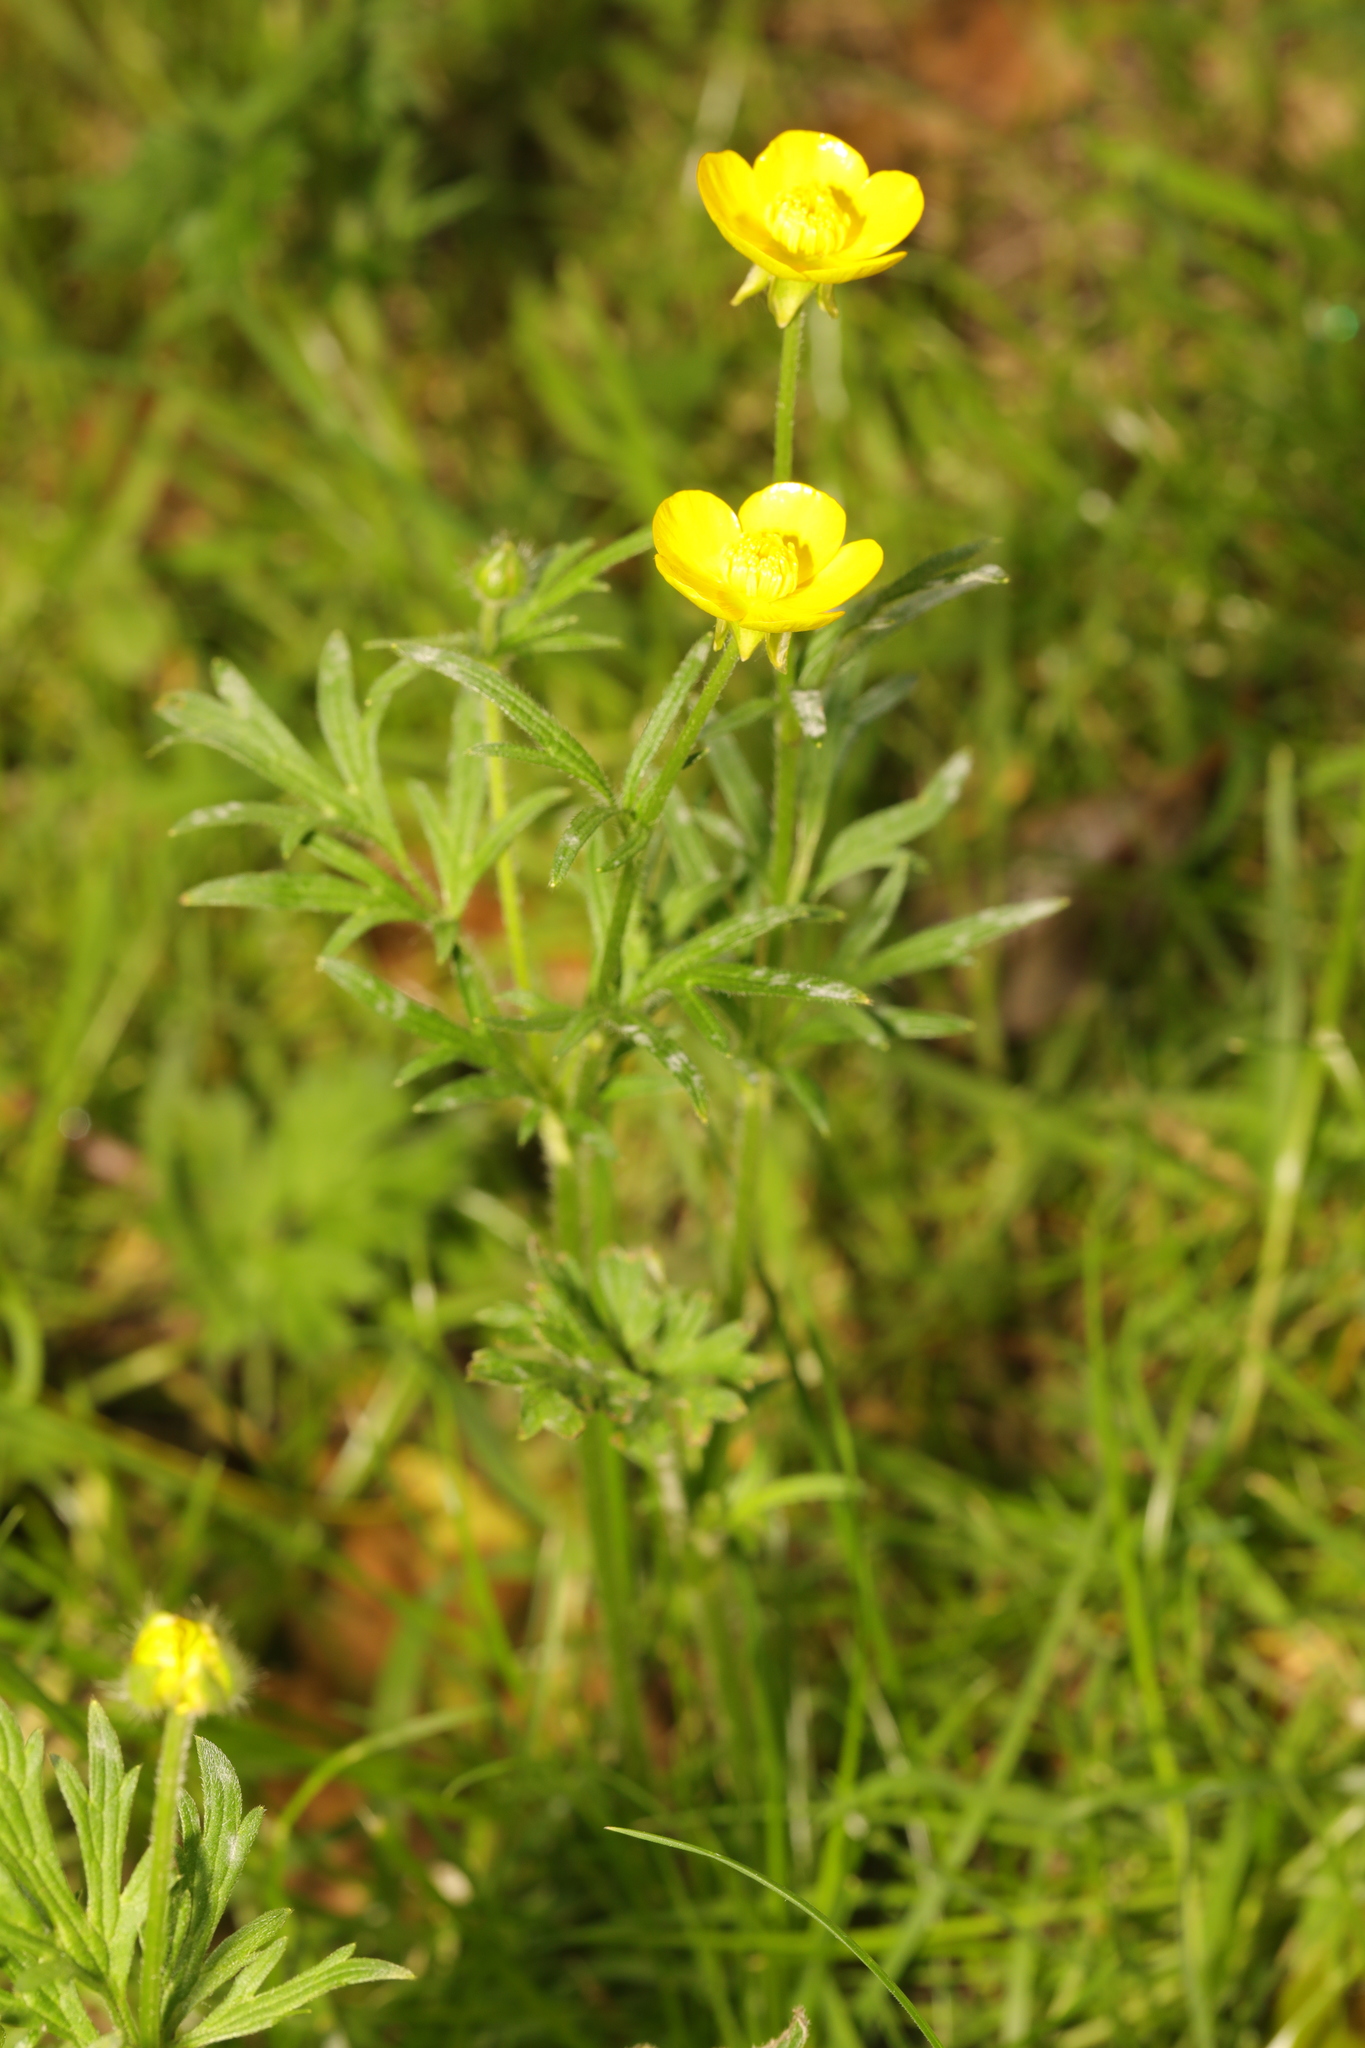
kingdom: Plantae
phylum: Tracheophyta
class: Magnoliopsida
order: Ranunculales
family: Ranunculaceae
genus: Ranunculus
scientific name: Ranunculus bulbosus
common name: Bulbous buttercup
